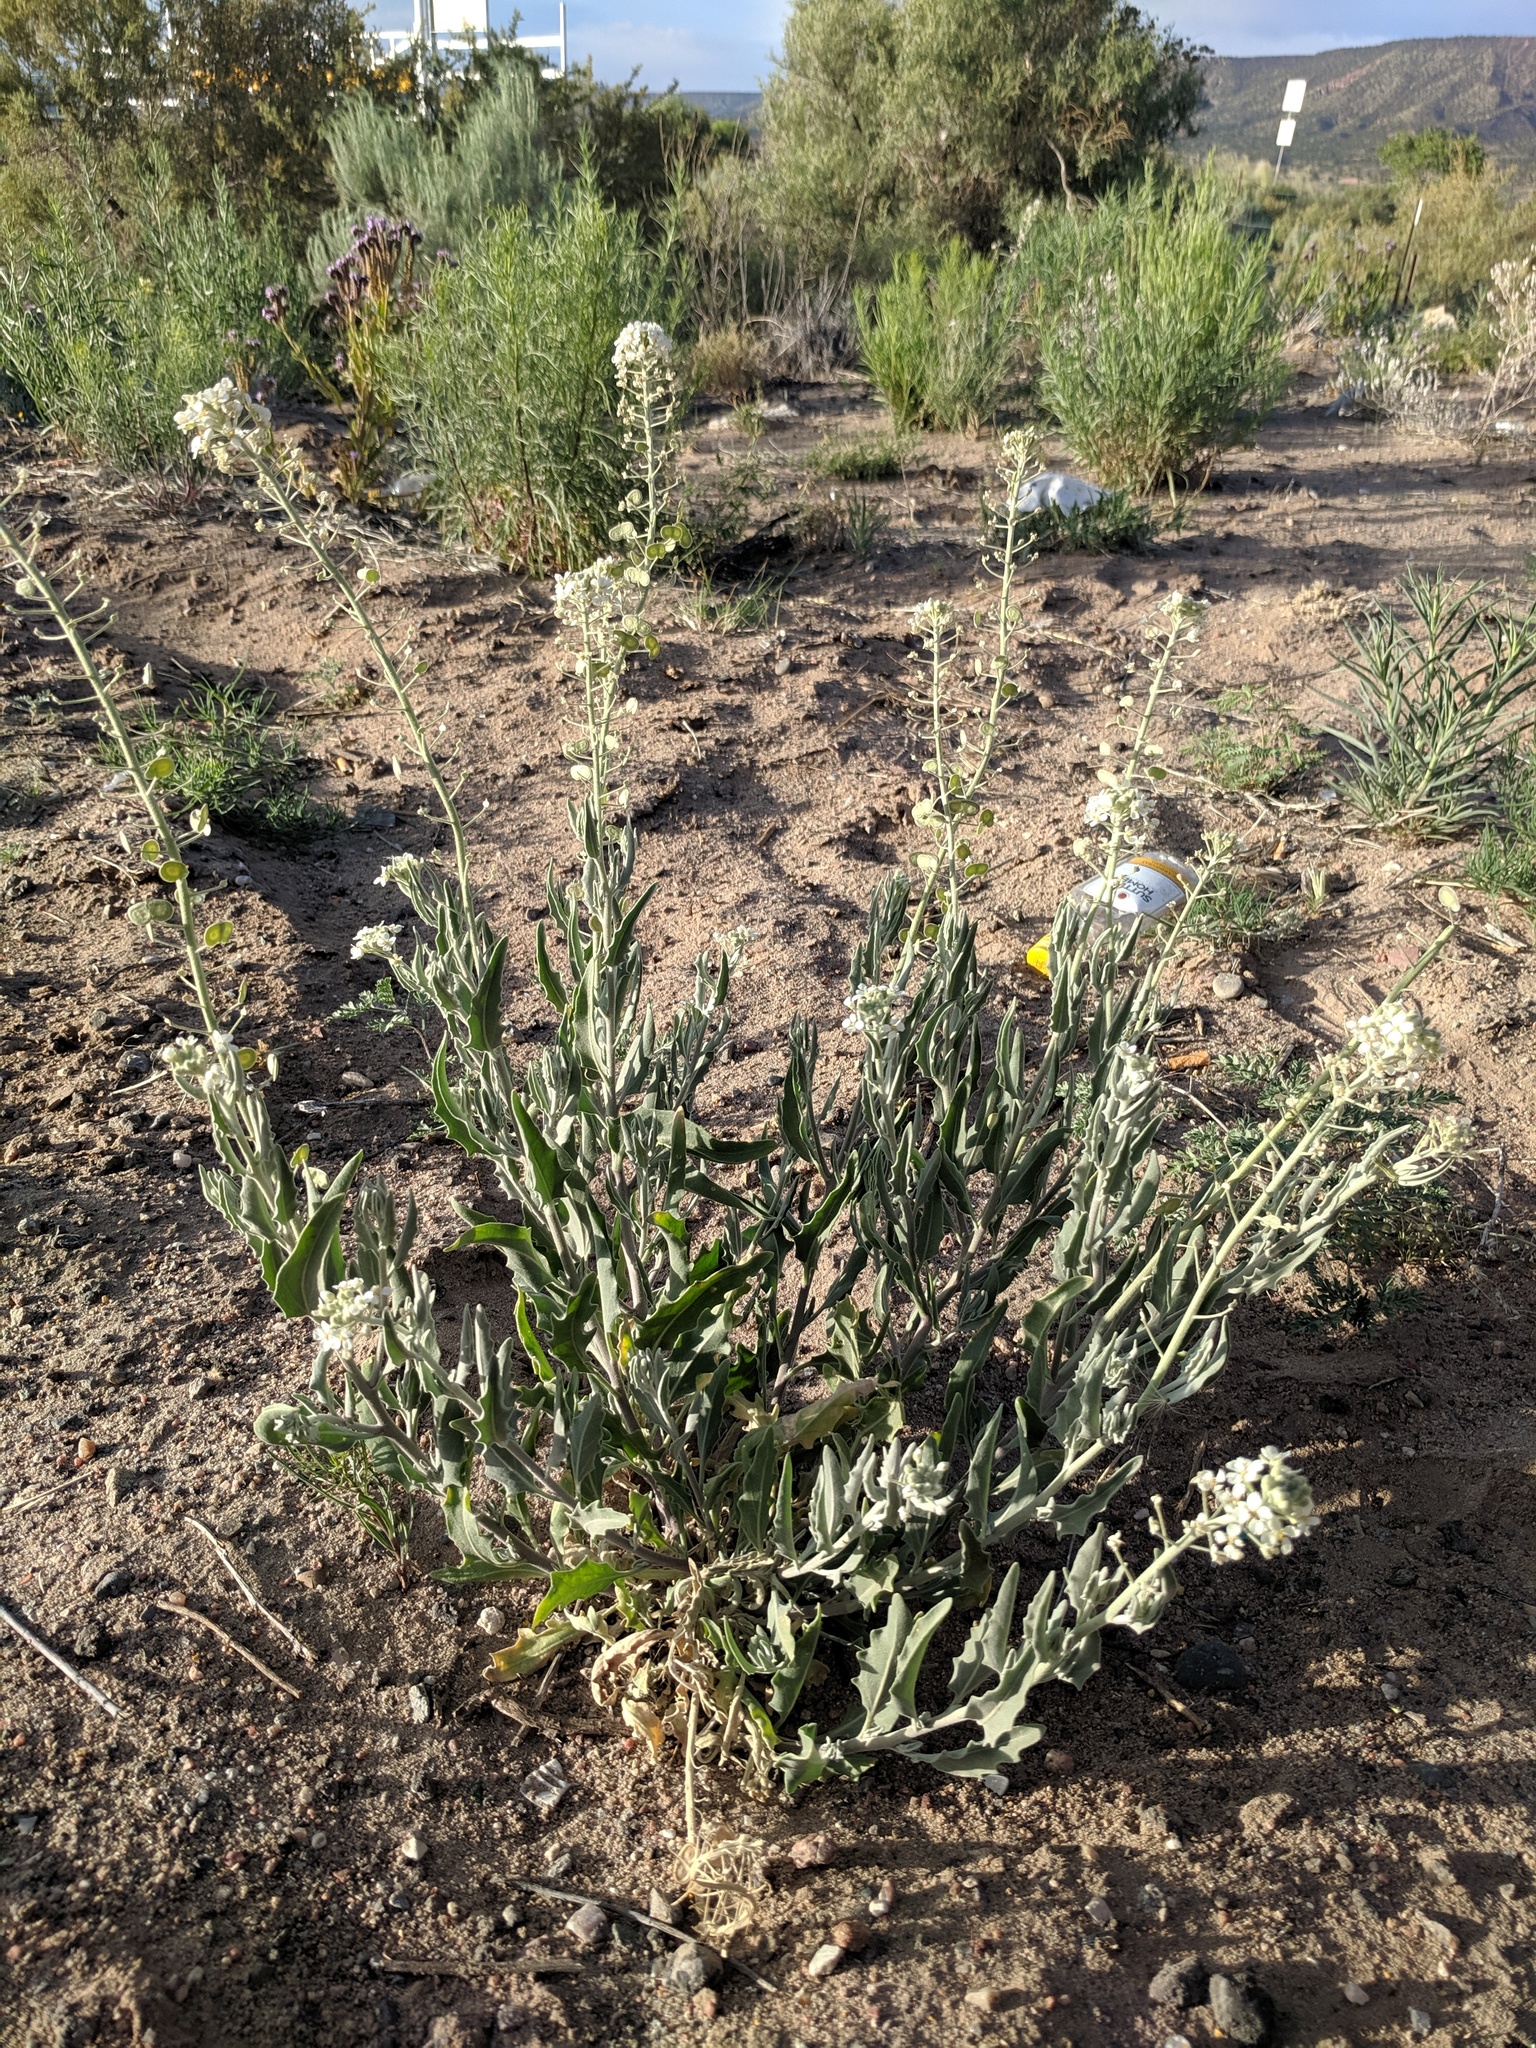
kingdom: Plantae
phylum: Tracheophyta
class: Magnoliopsida
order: Brassicales
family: Brassicaceae
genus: Dimorphocarpa
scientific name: Dimorphocarpa wislizenii
